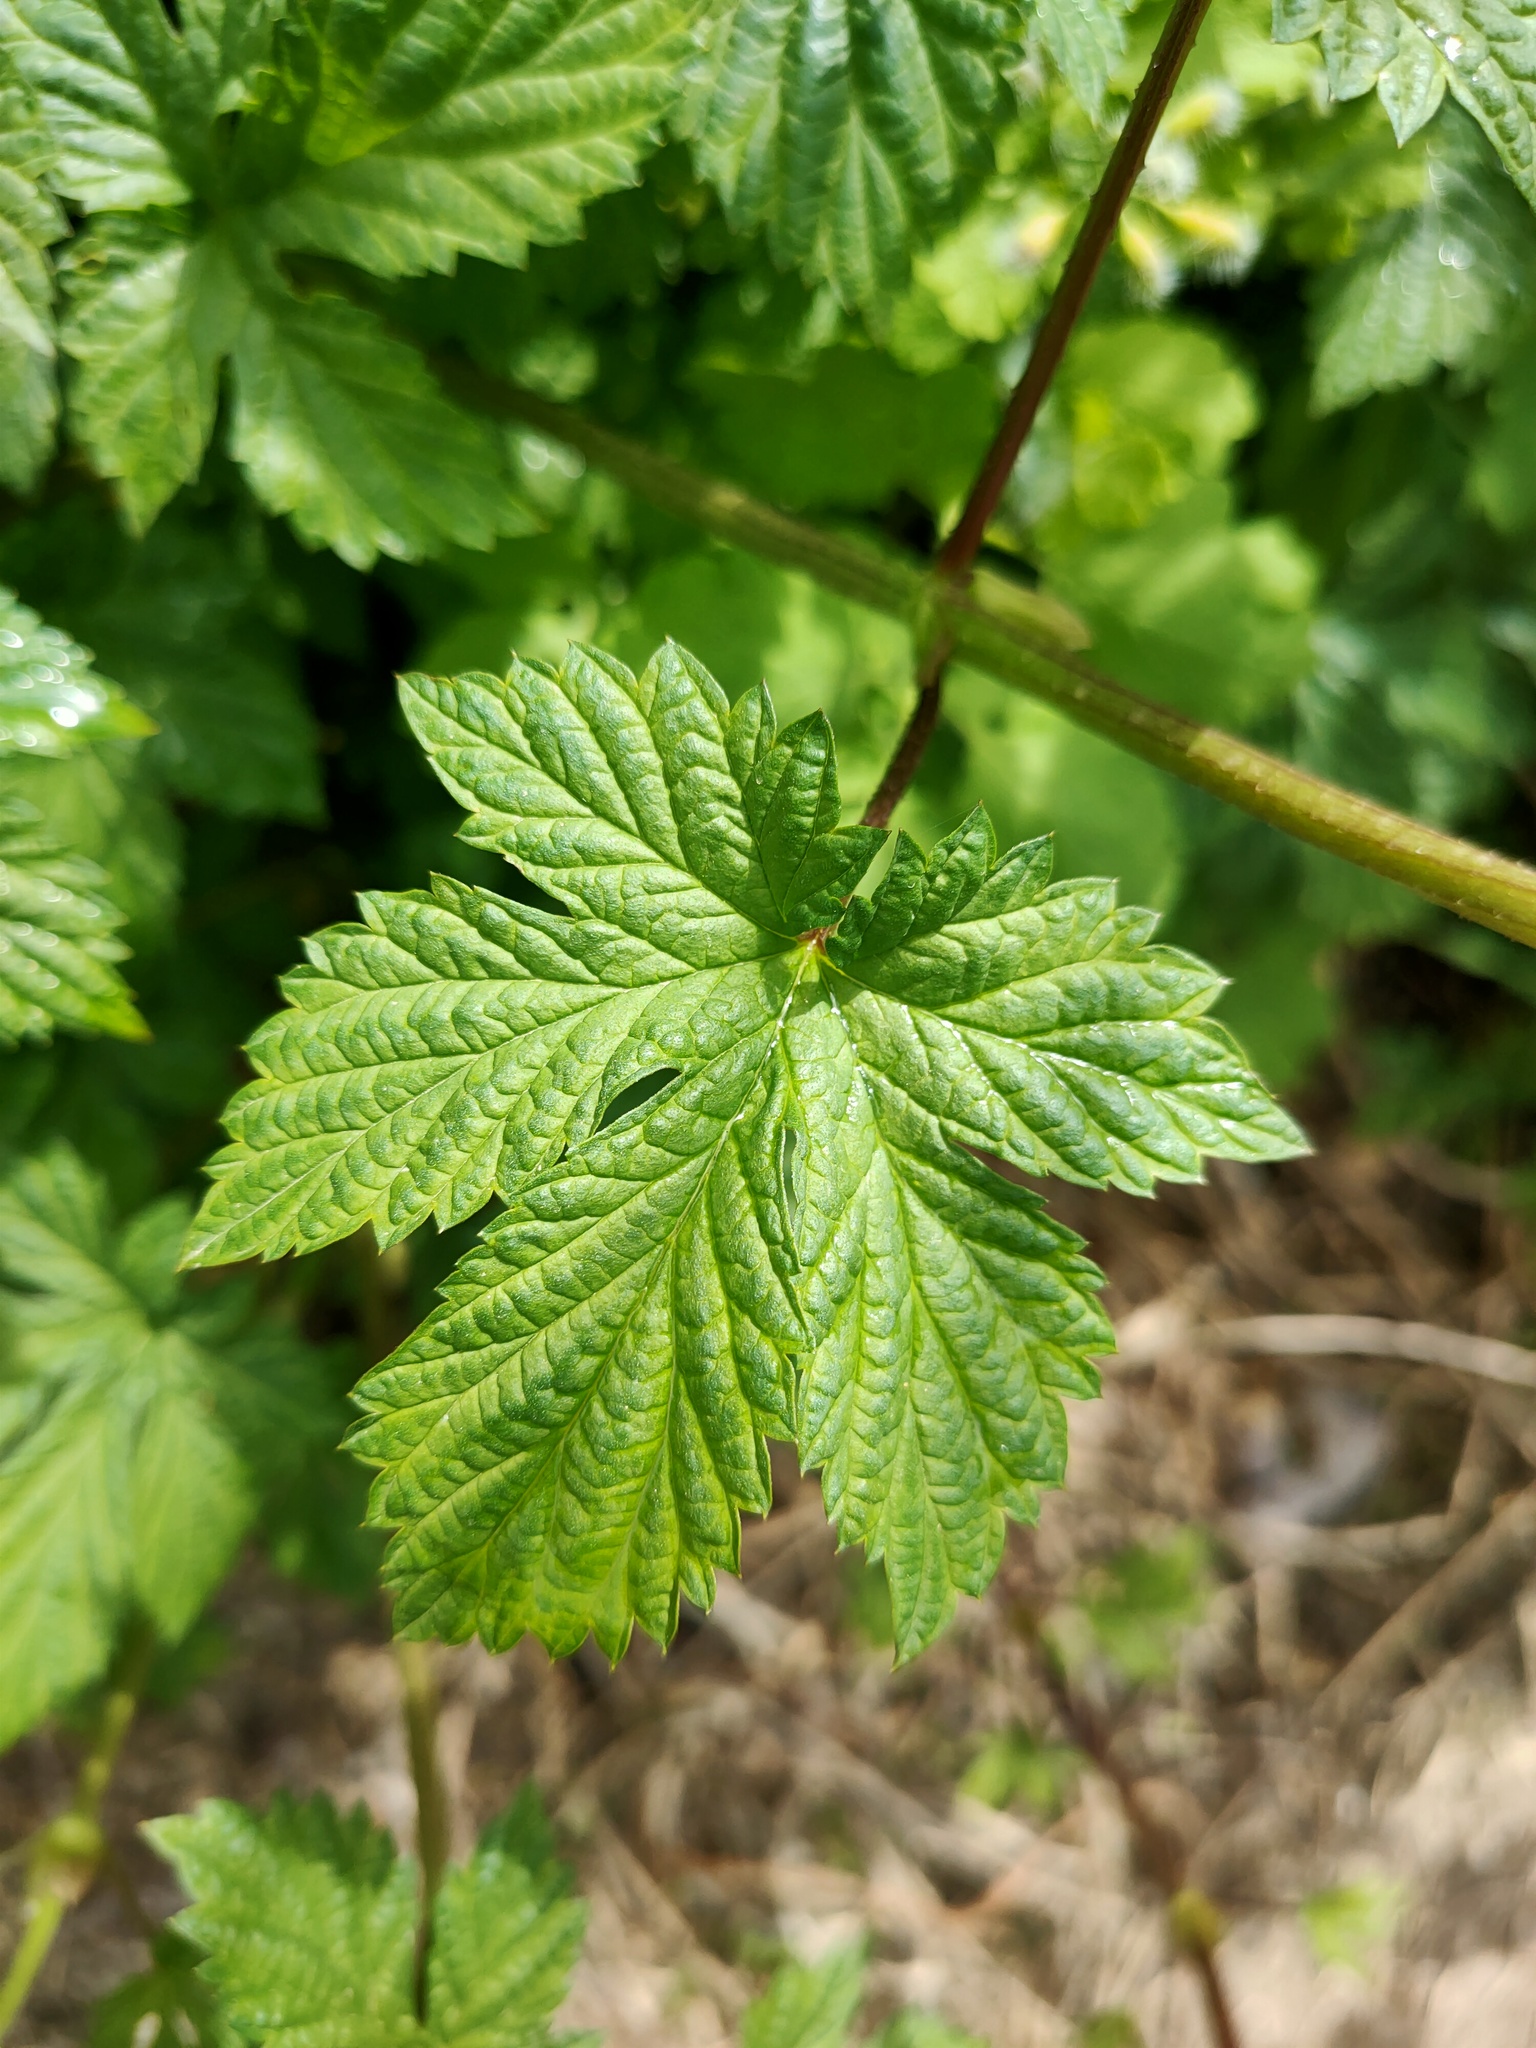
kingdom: Plantae
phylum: Tracheophyta
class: Magnoliopsida
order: Rosales
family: Cannabaceae
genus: Humulus
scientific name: Humulus lupulus
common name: Hop
